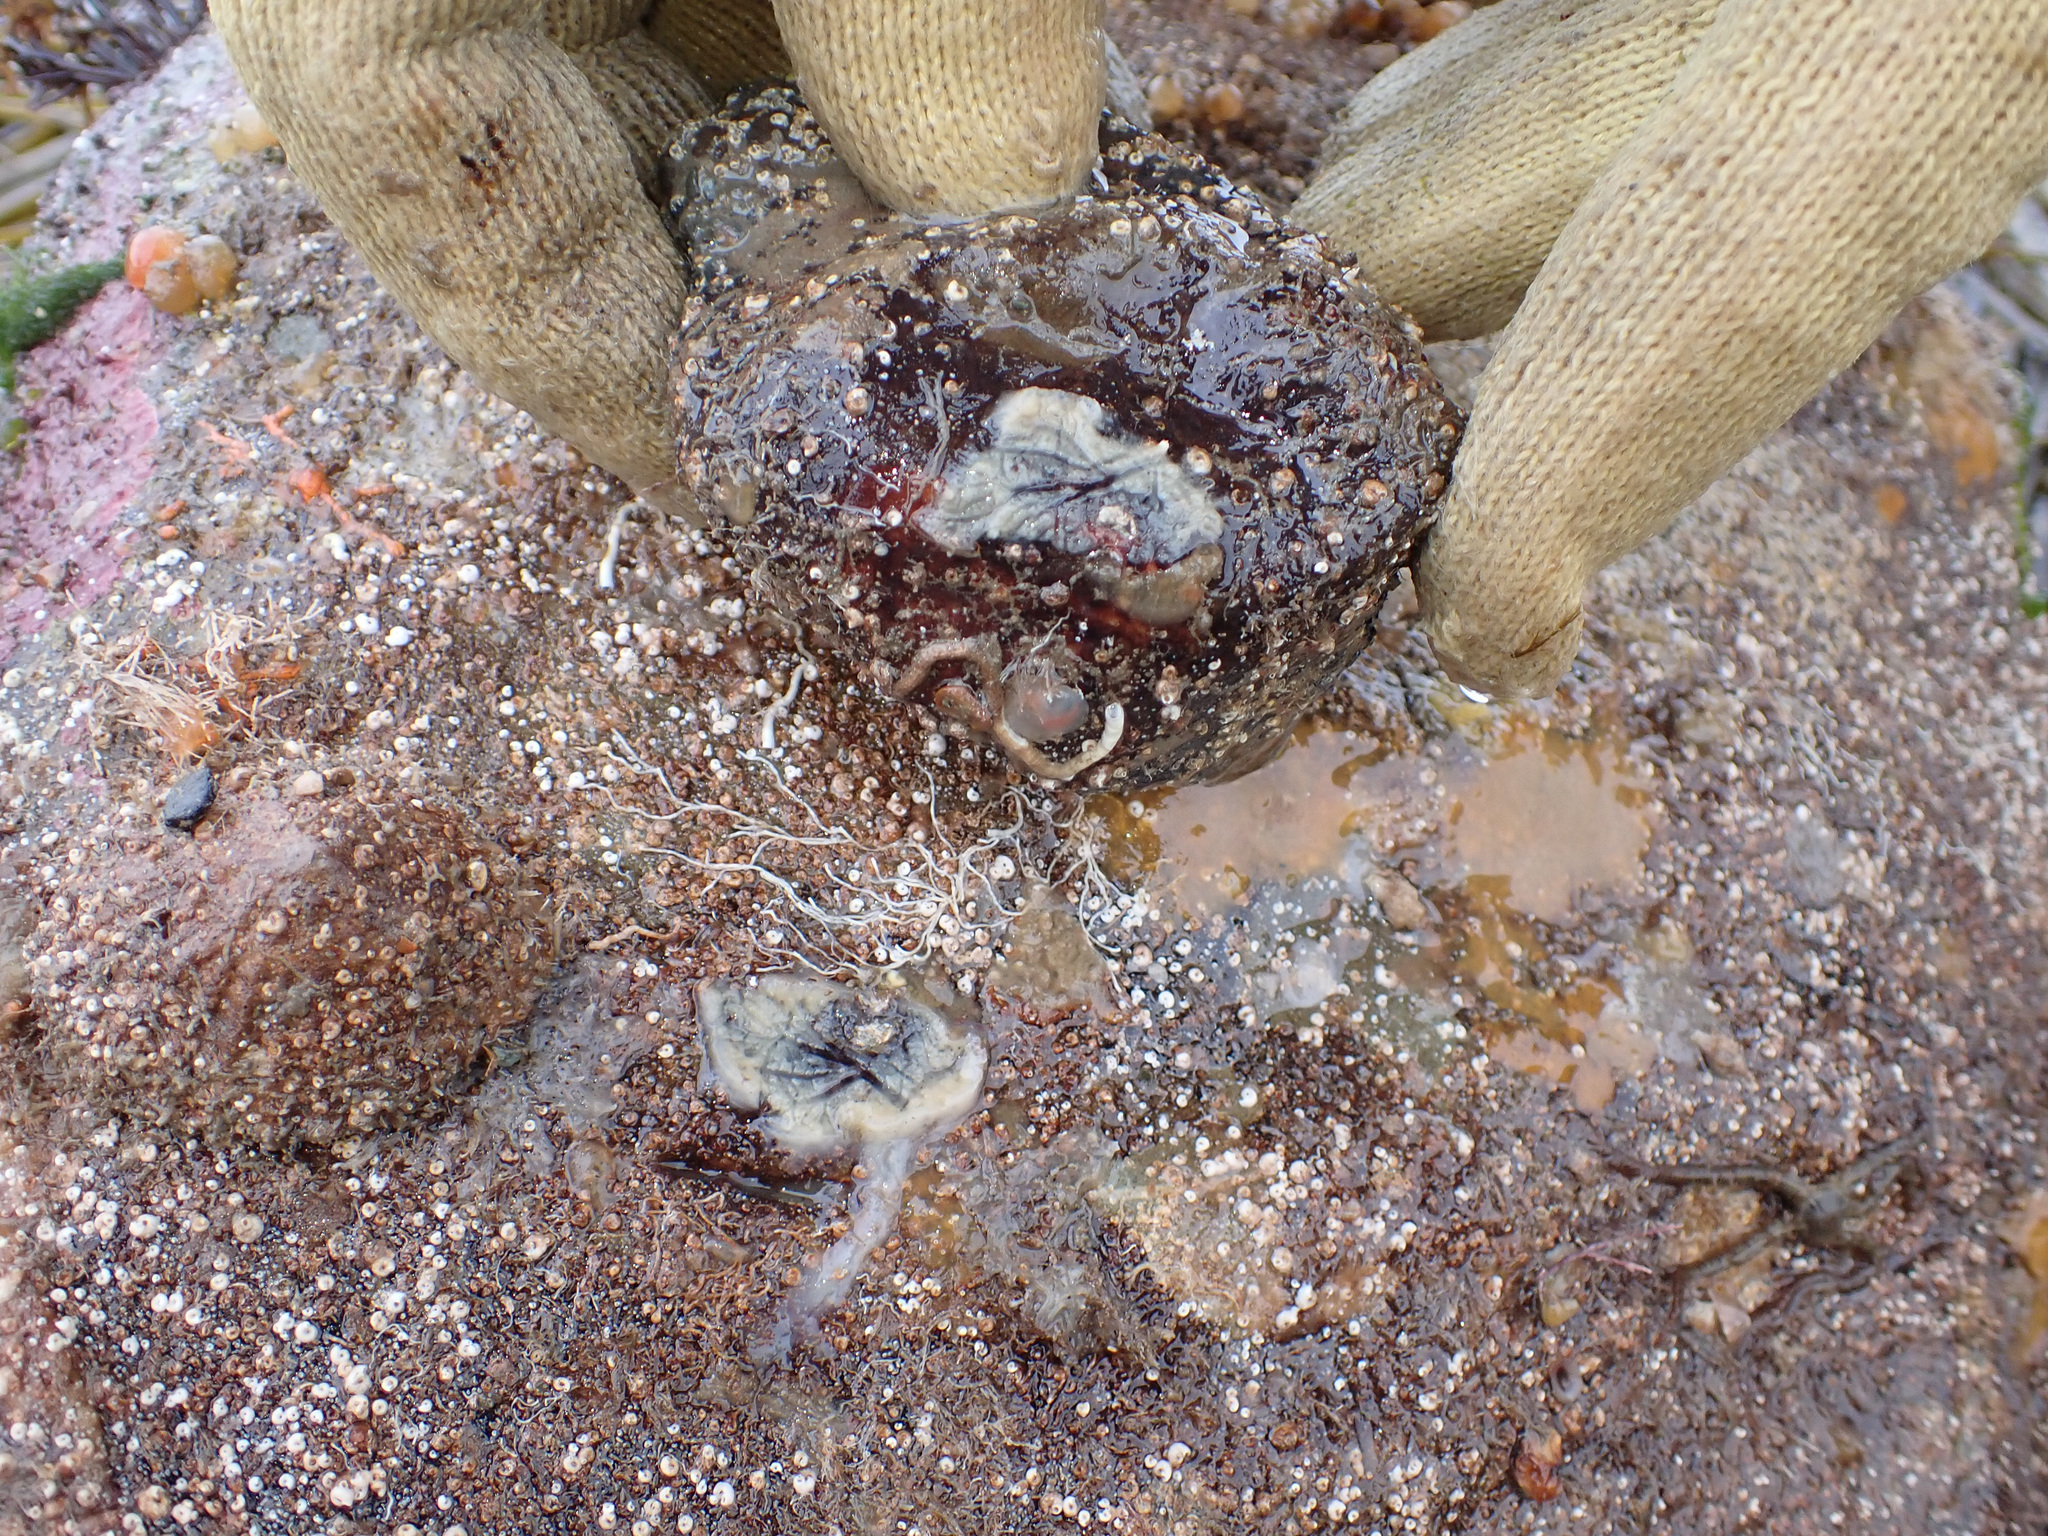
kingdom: Animalia
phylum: Porifera
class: Demospongiae
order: Tetractinellida
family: Ancorinidae
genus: Stelletta
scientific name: Stelletta lactea
